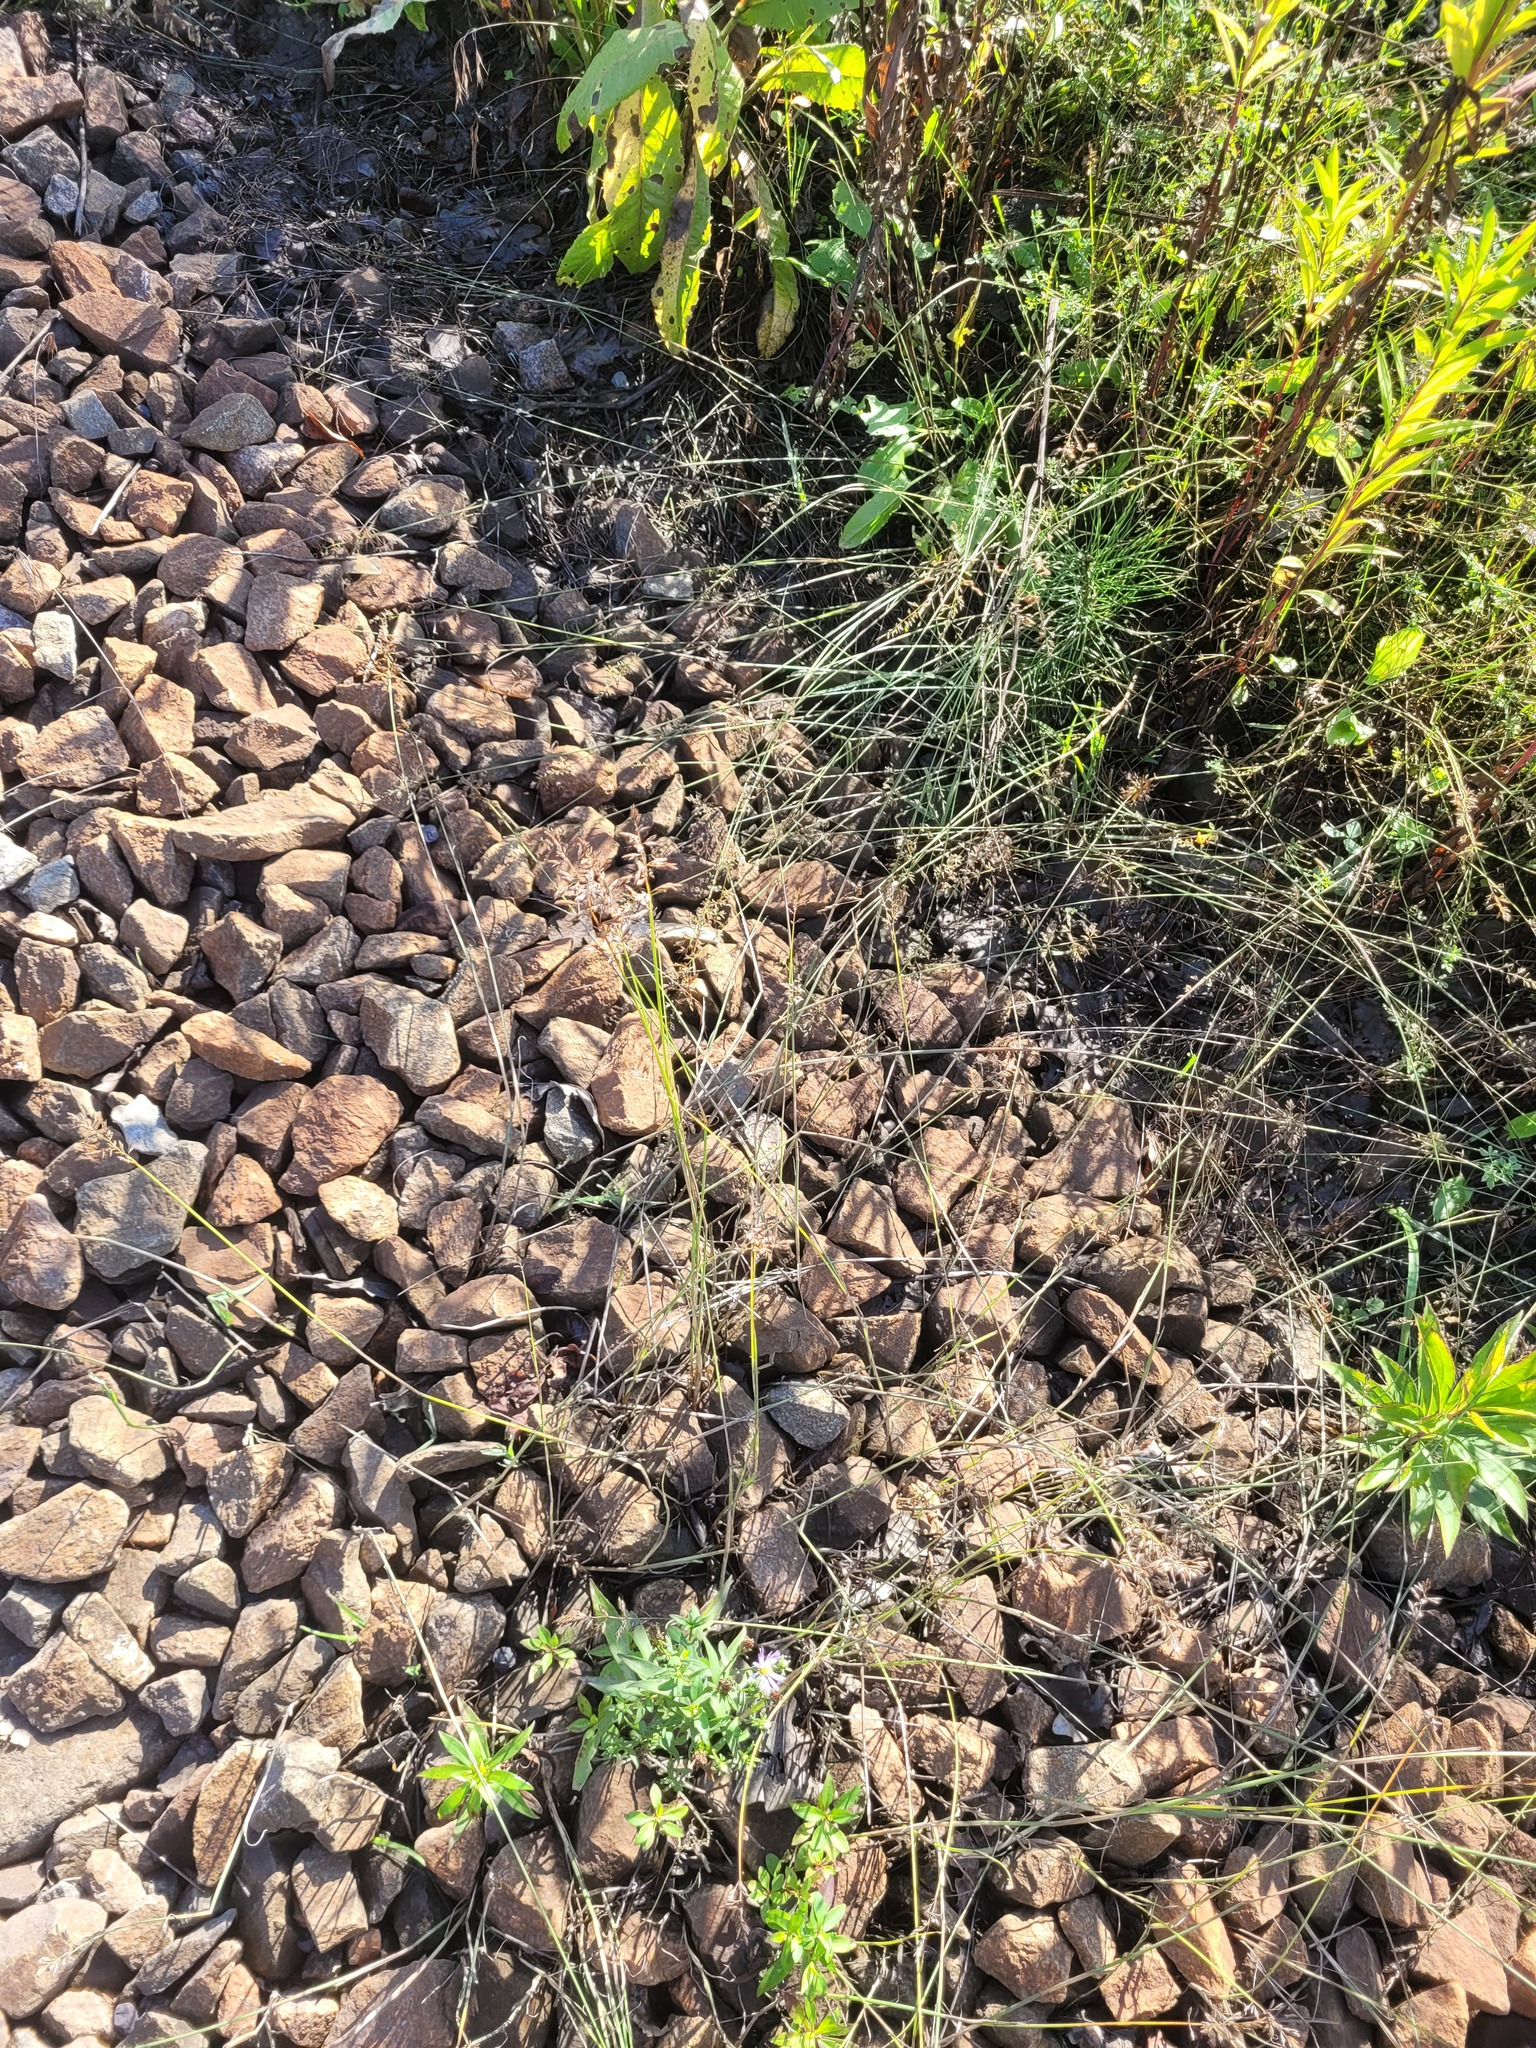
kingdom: Plantae
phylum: Tracheophyta
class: Liliopsida
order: Poales
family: Poaceae
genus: Poa
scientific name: Poa compressa
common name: Canada bluegrass
